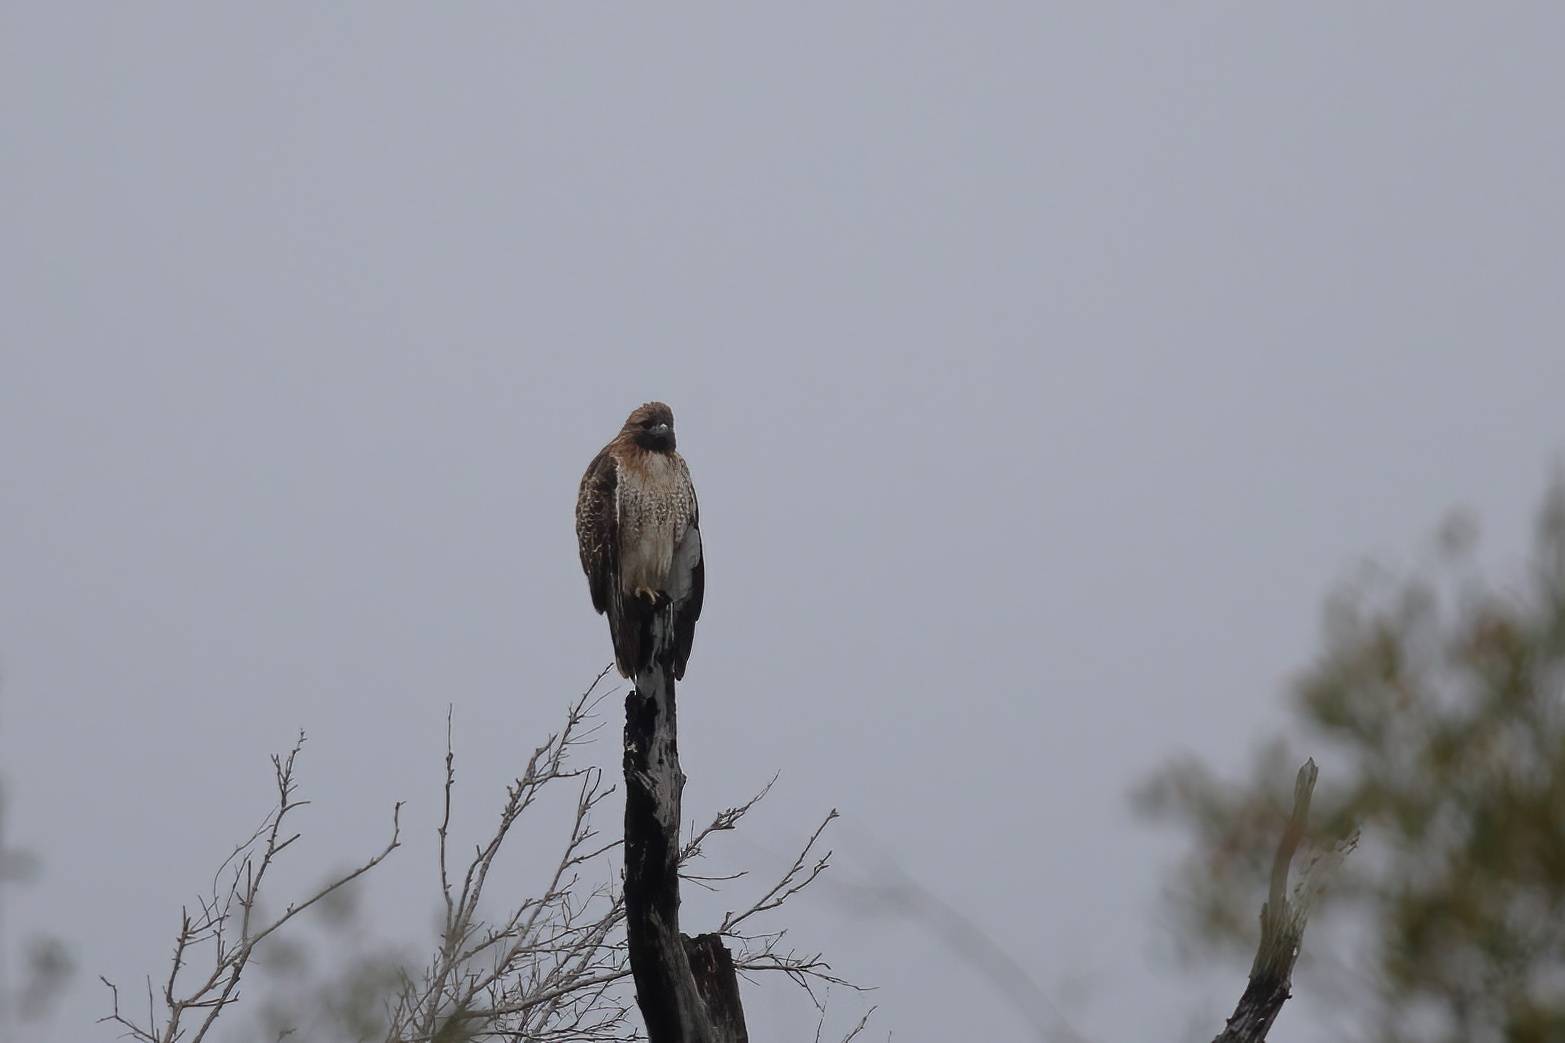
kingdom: Animalia
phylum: Chordata
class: Aves
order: Accipitriformes
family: Accipitridae
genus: Buteo
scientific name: Buteo jamaicensis
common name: Red-tailed hawk
